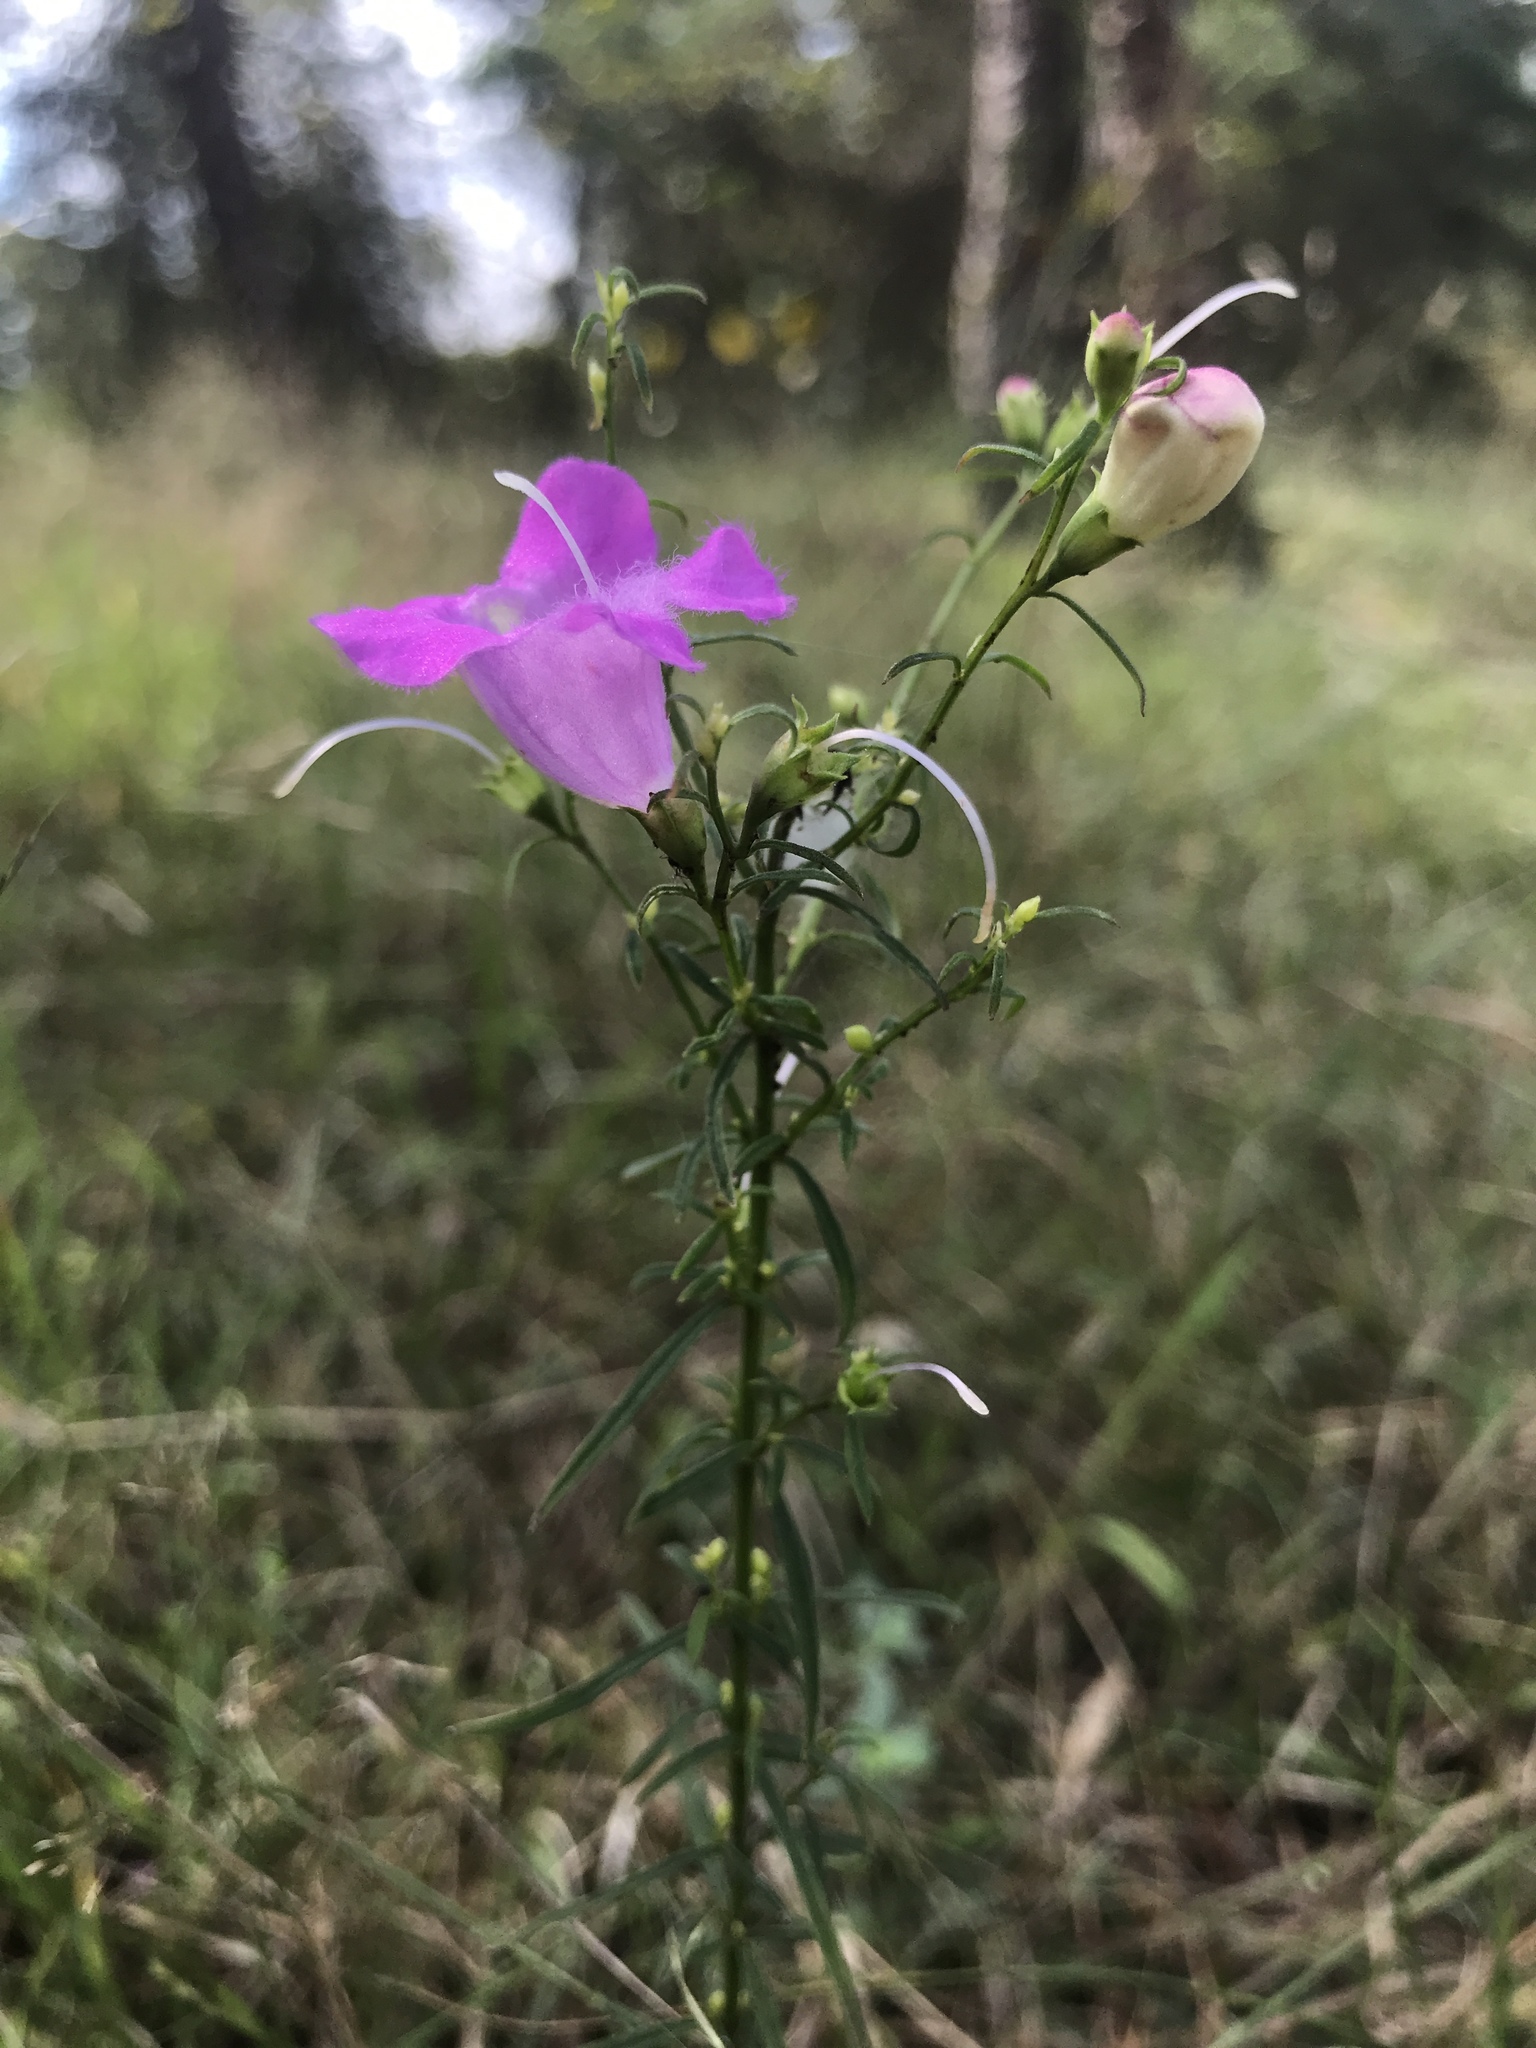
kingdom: Plantae
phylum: Tracheophyta
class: Magnoliopsida
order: Lamiales
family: Orobanchaceae
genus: Agalinis
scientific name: Agalinis purpurea
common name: Purple false foxglove
